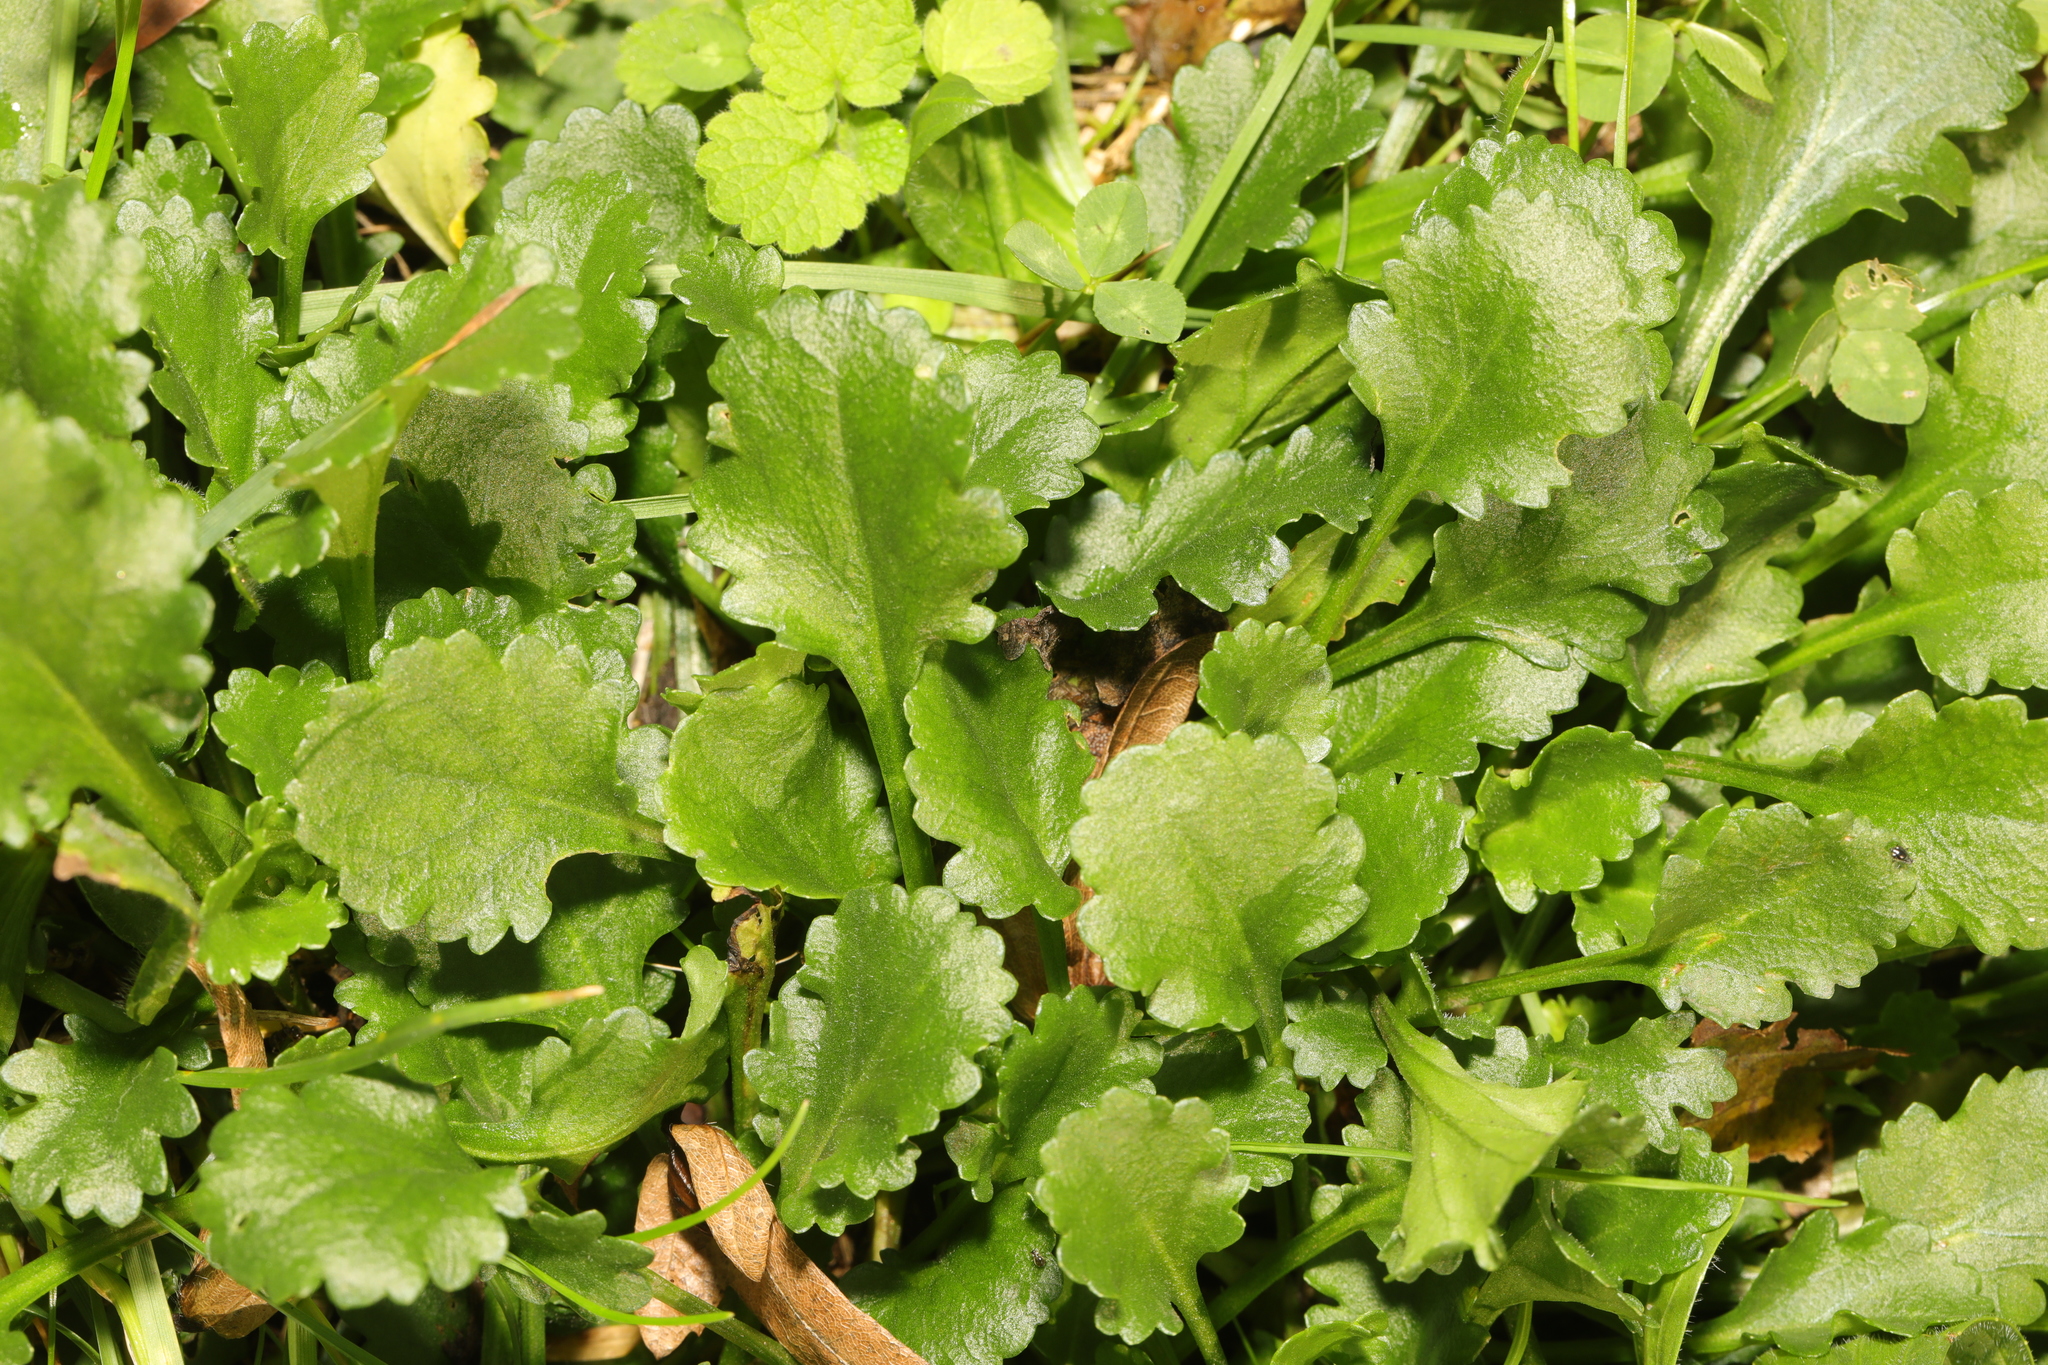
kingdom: Plantae
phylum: Tracheophyta
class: Magnoliopsida
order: Asterales
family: Asteraceae
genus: Leucanthemum
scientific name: Leucanthemum vulgare
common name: Oxeye daisy
